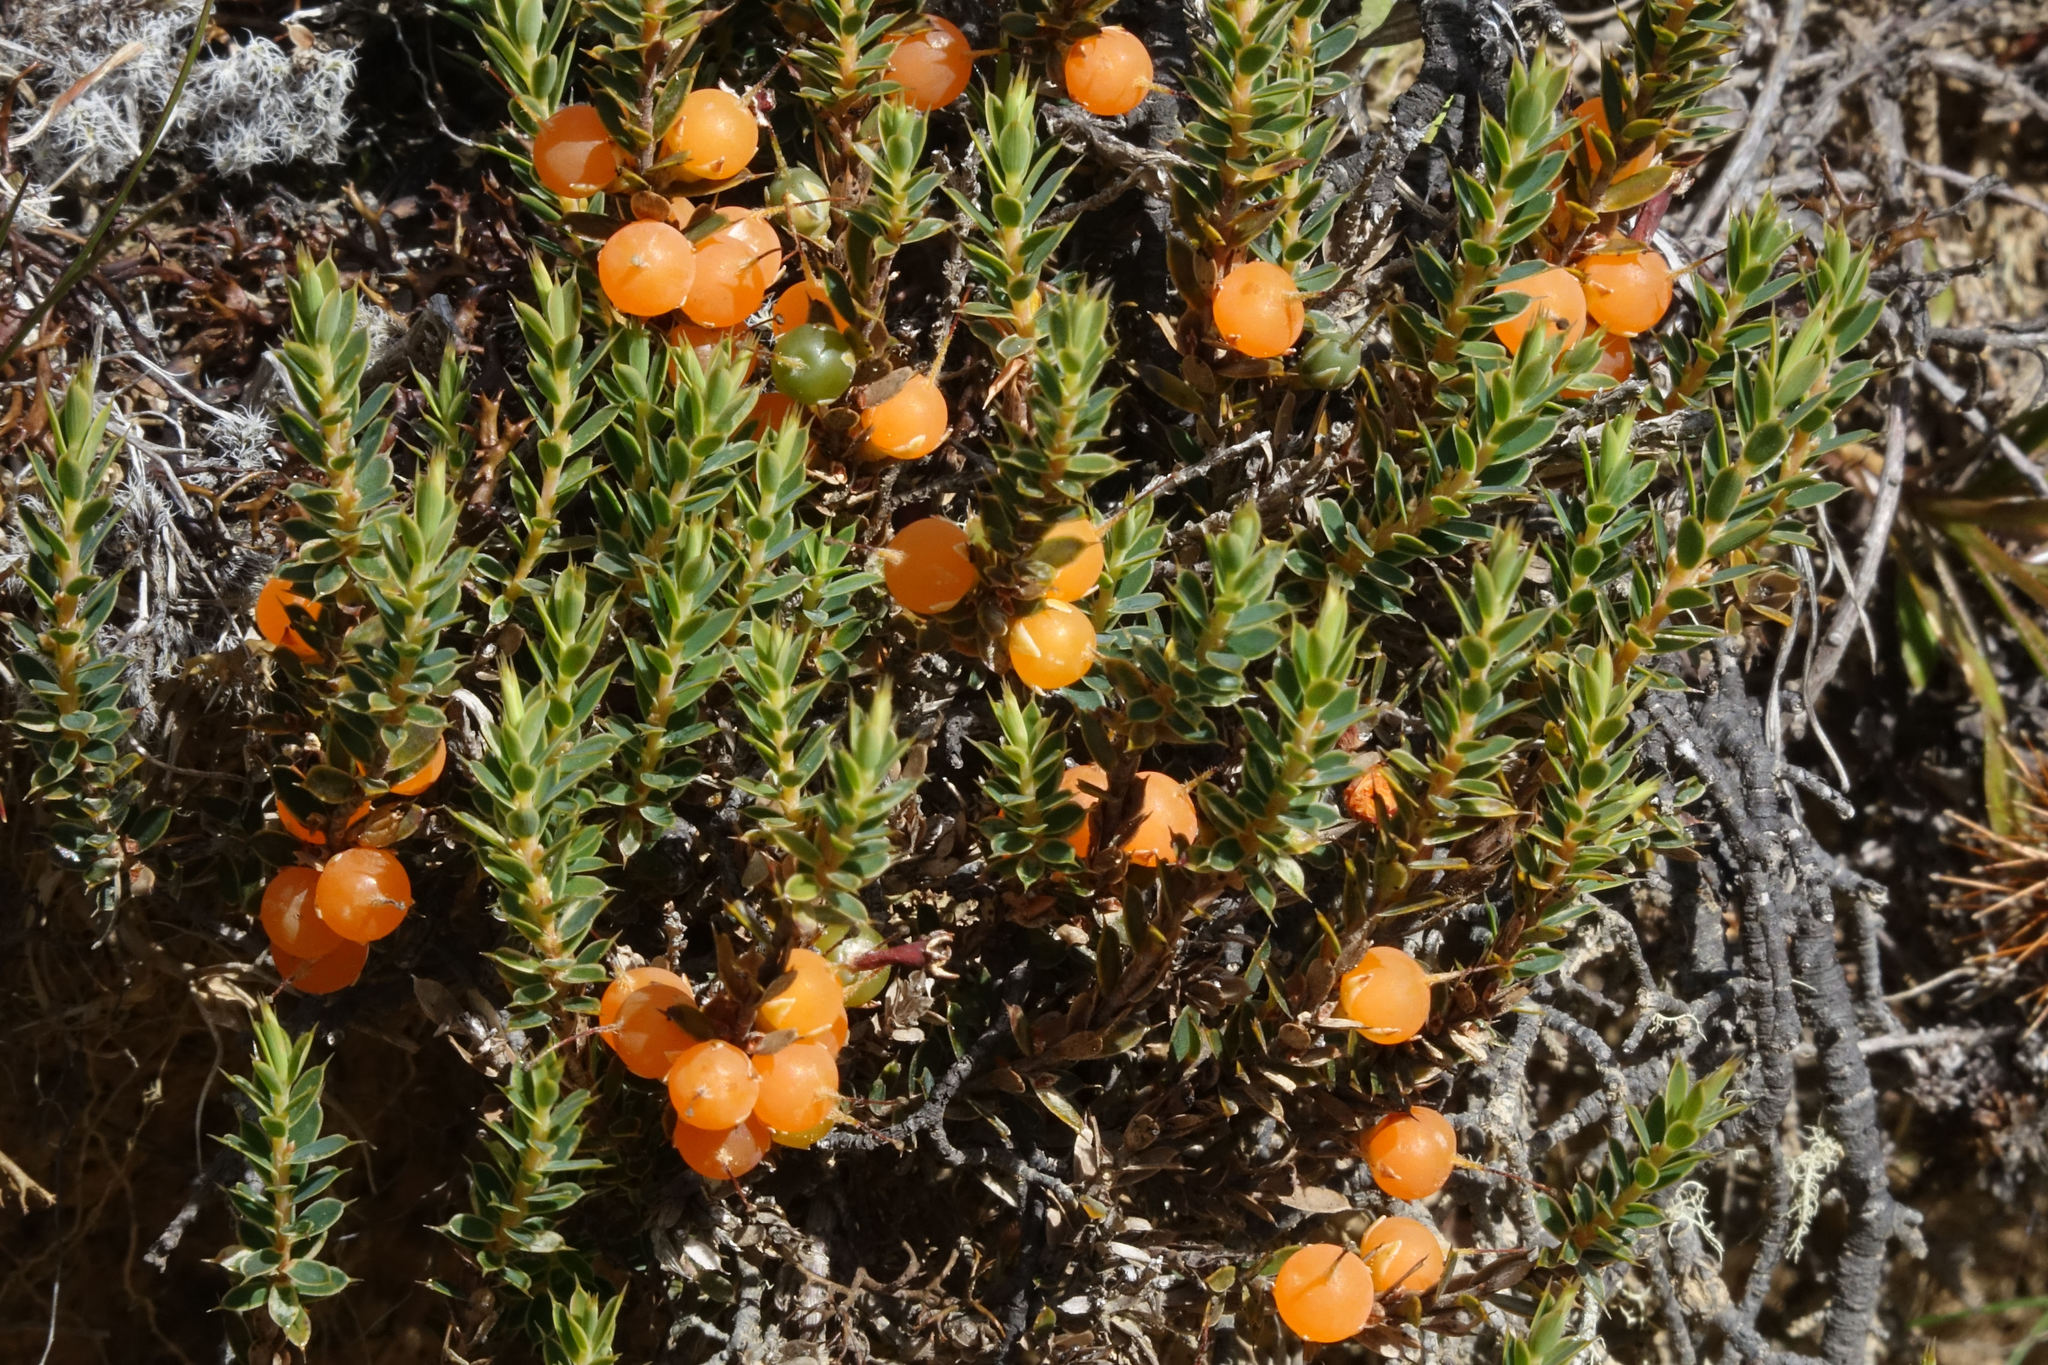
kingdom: Plantae
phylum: Tracheophyta
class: Magnoliopsida
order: Ericales
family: Ericaceae
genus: Styphelia
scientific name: Styphelia nesophila
